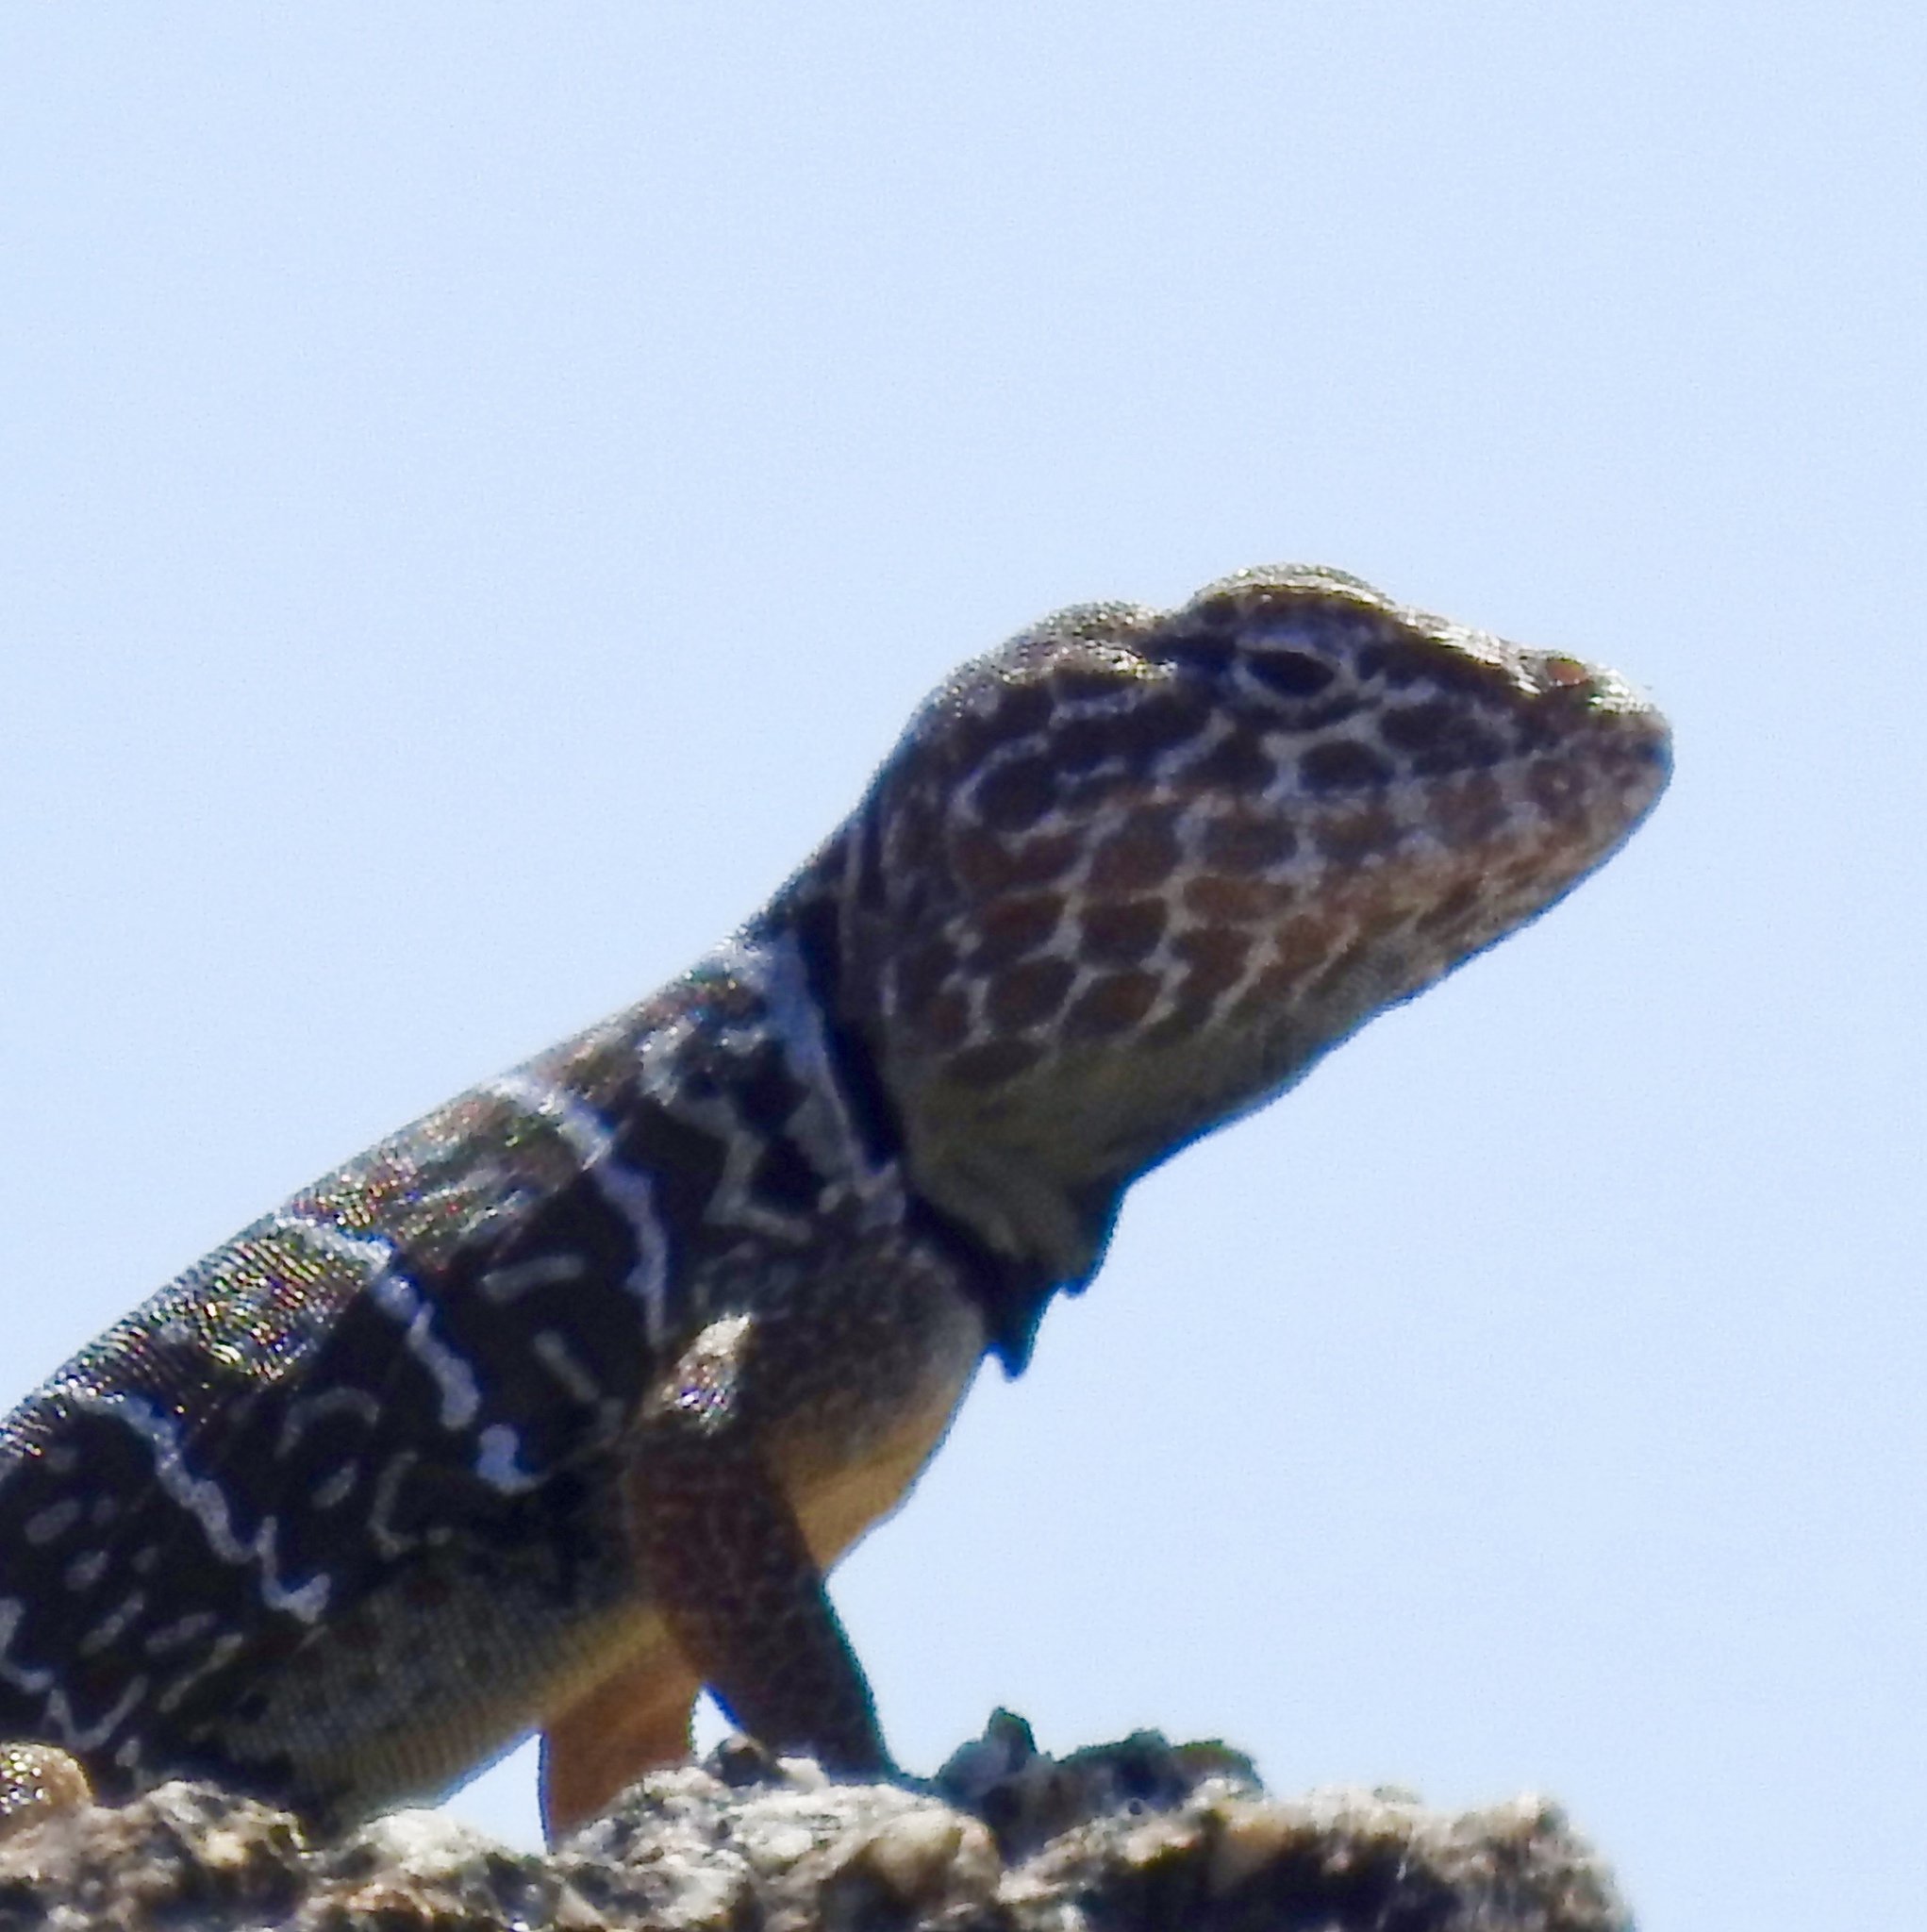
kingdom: Animalia
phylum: Chordata
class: Squamata
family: Crotaphytidae
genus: Crotaphytus
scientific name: Crotaphytus vestigium
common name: Baja black-collared lizard
